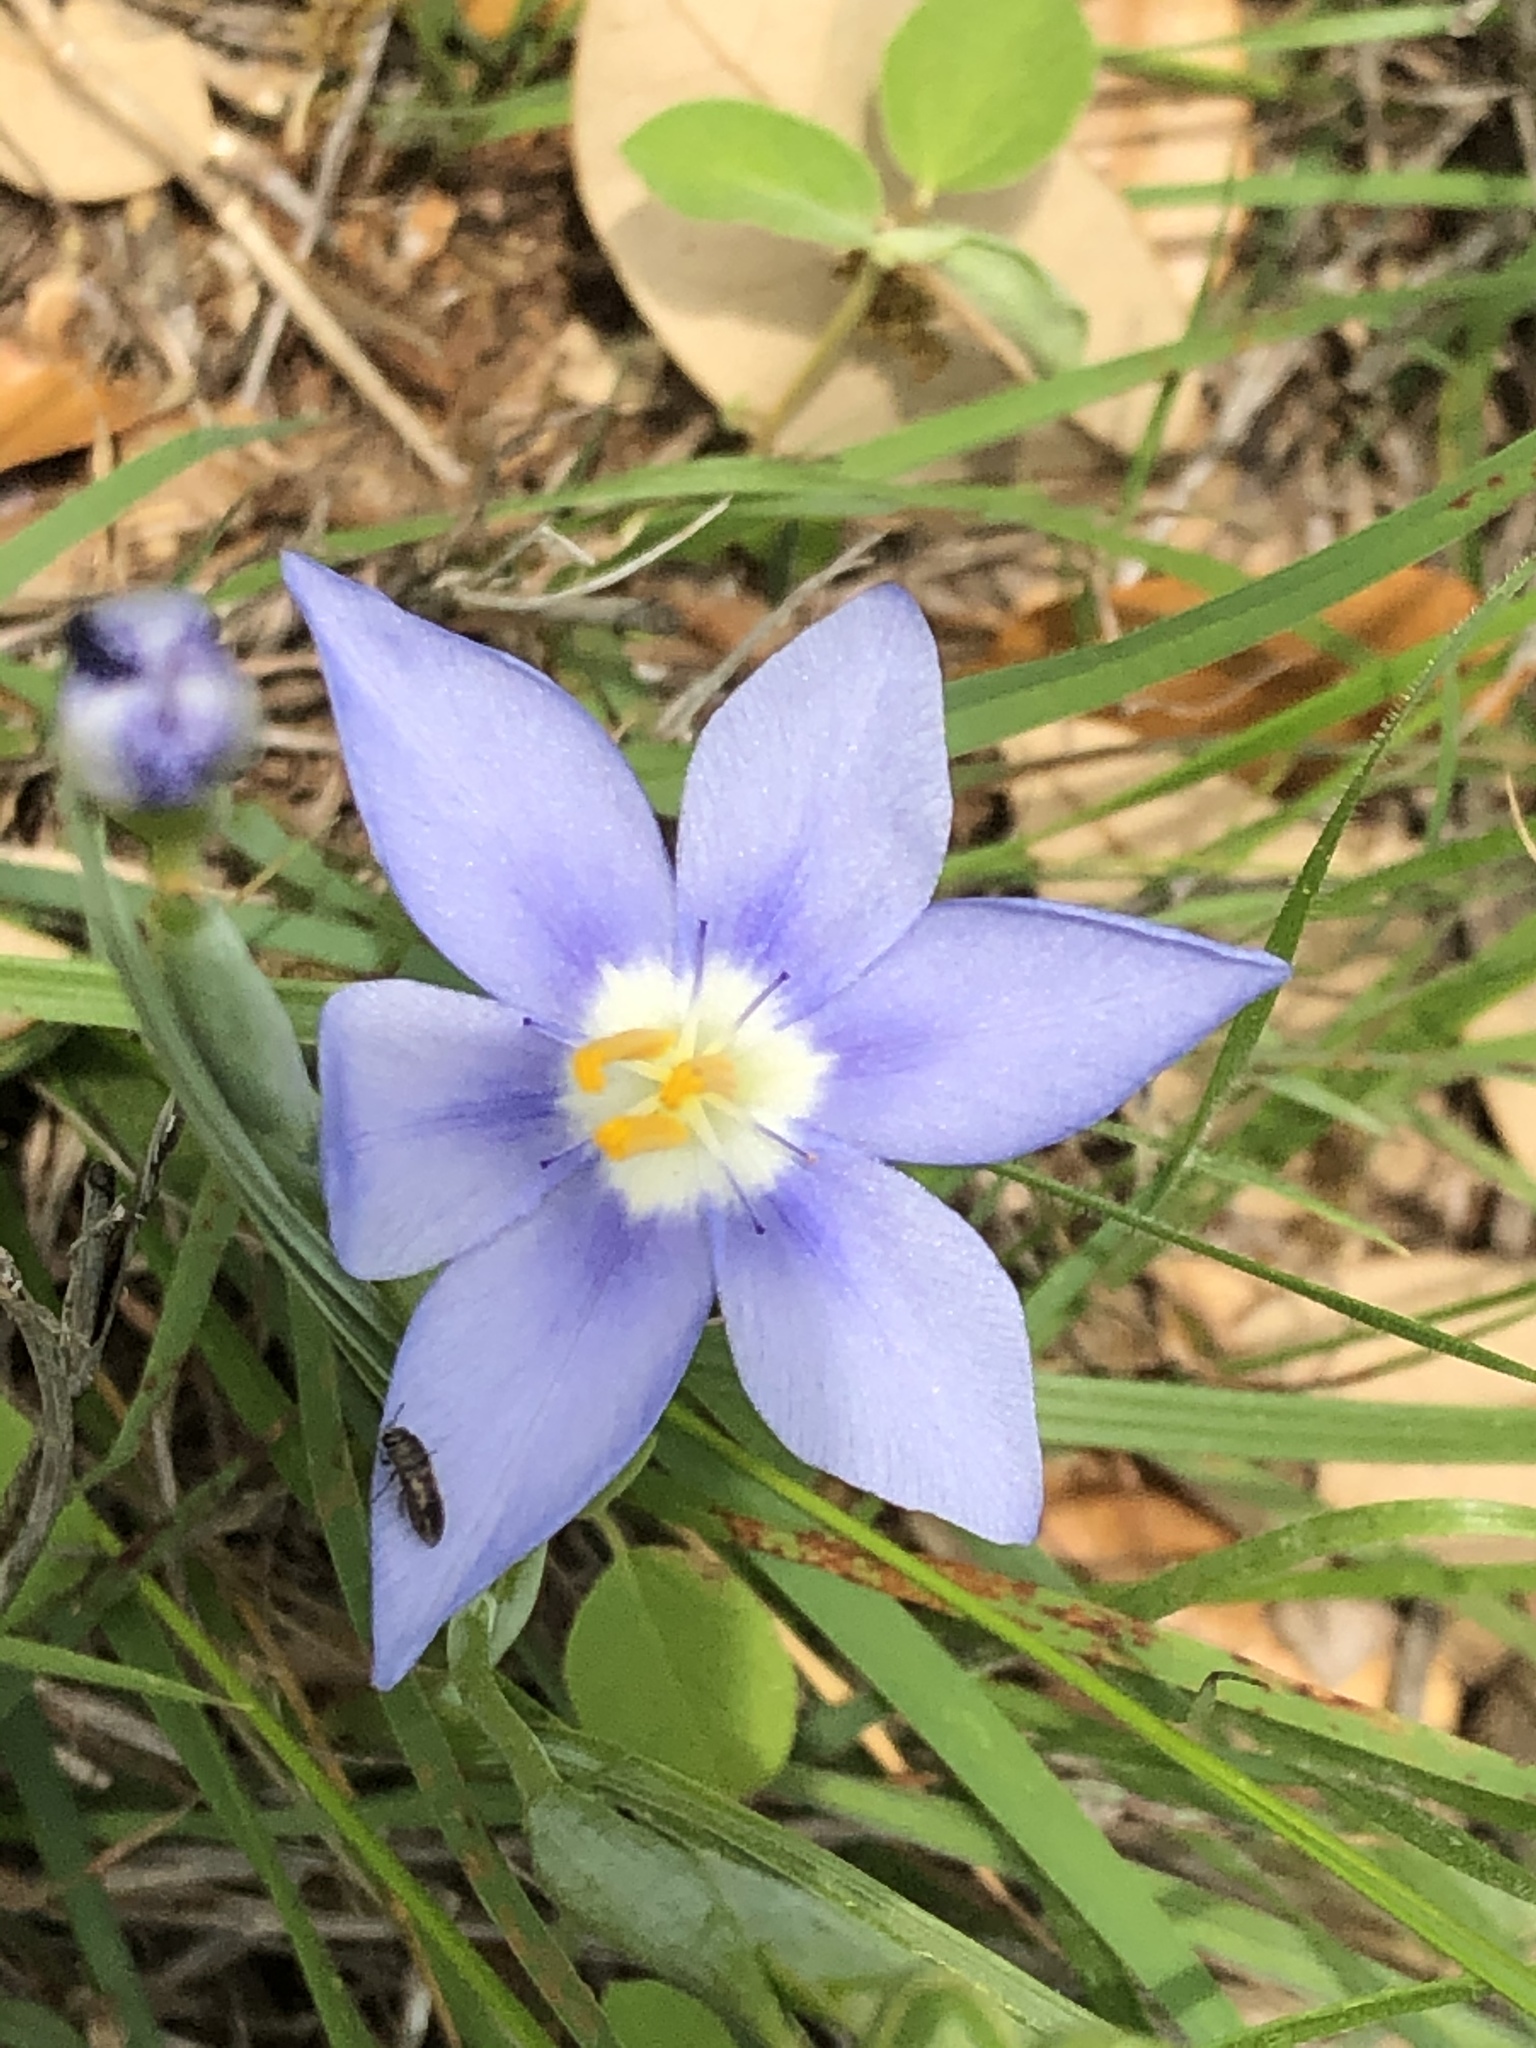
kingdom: Plantae
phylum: Tracheophyta
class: Liliopsida
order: Asparagales
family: Iridaceae
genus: Nemastylis
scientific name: Nemastylis geminiflora
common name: Prairie celestial
